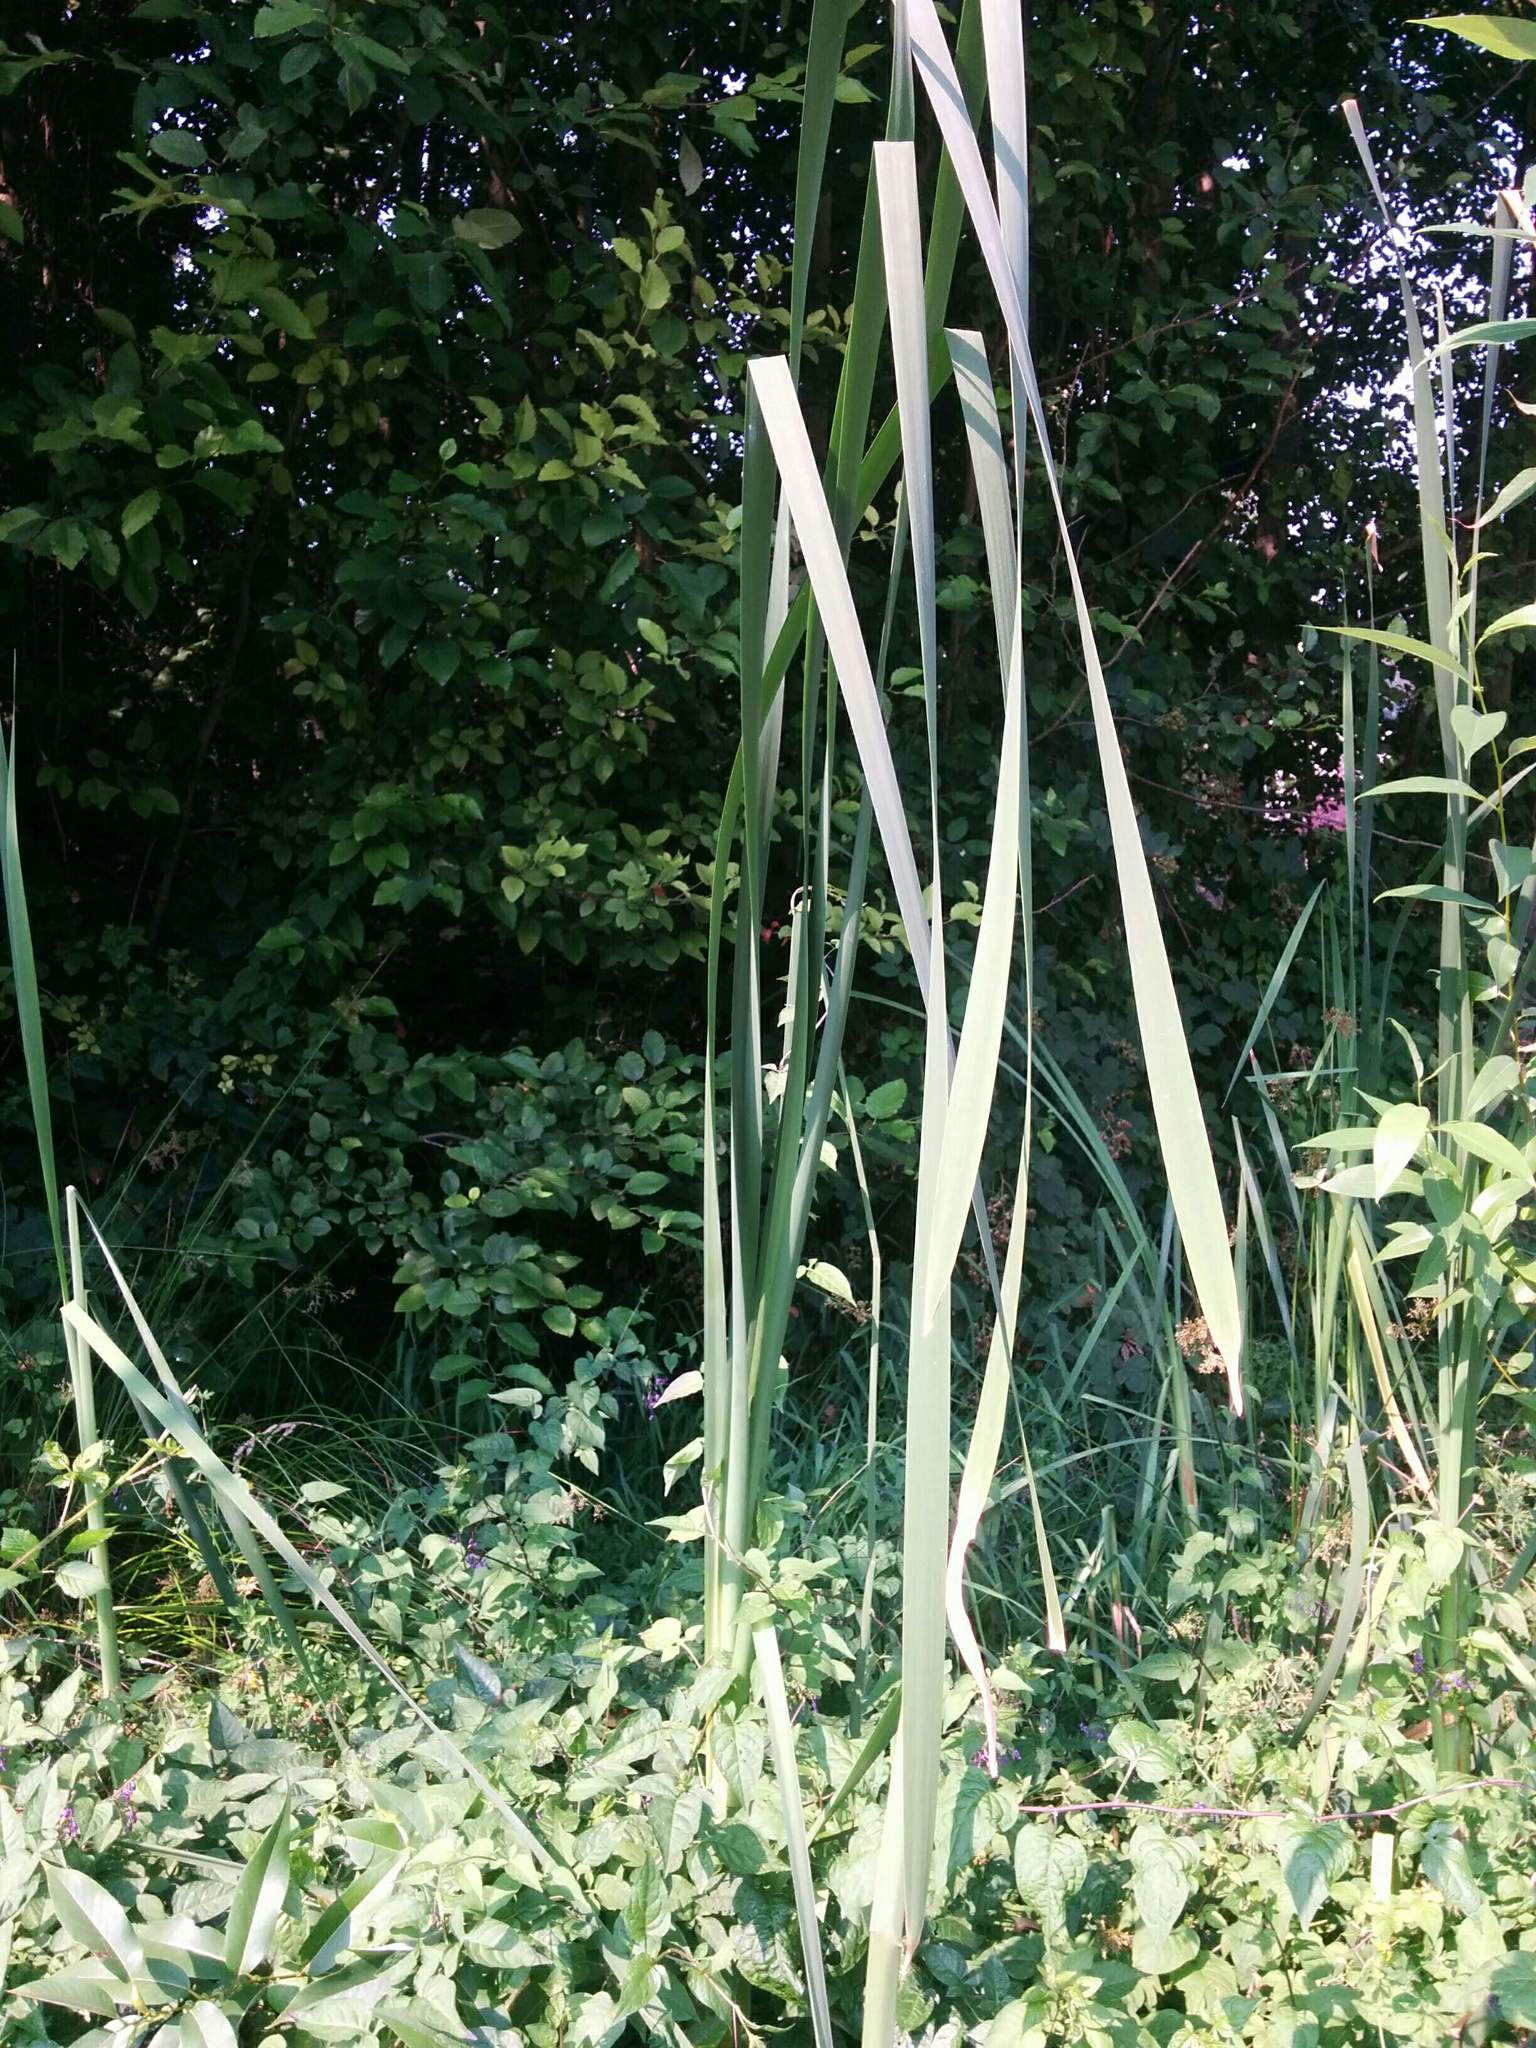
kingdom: Plantae
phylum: Tracheophyta
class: Liliopsida
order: Poales
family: Typhaceae
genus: Typha
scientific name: Typha latifolia
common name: Broadleaf cattail
